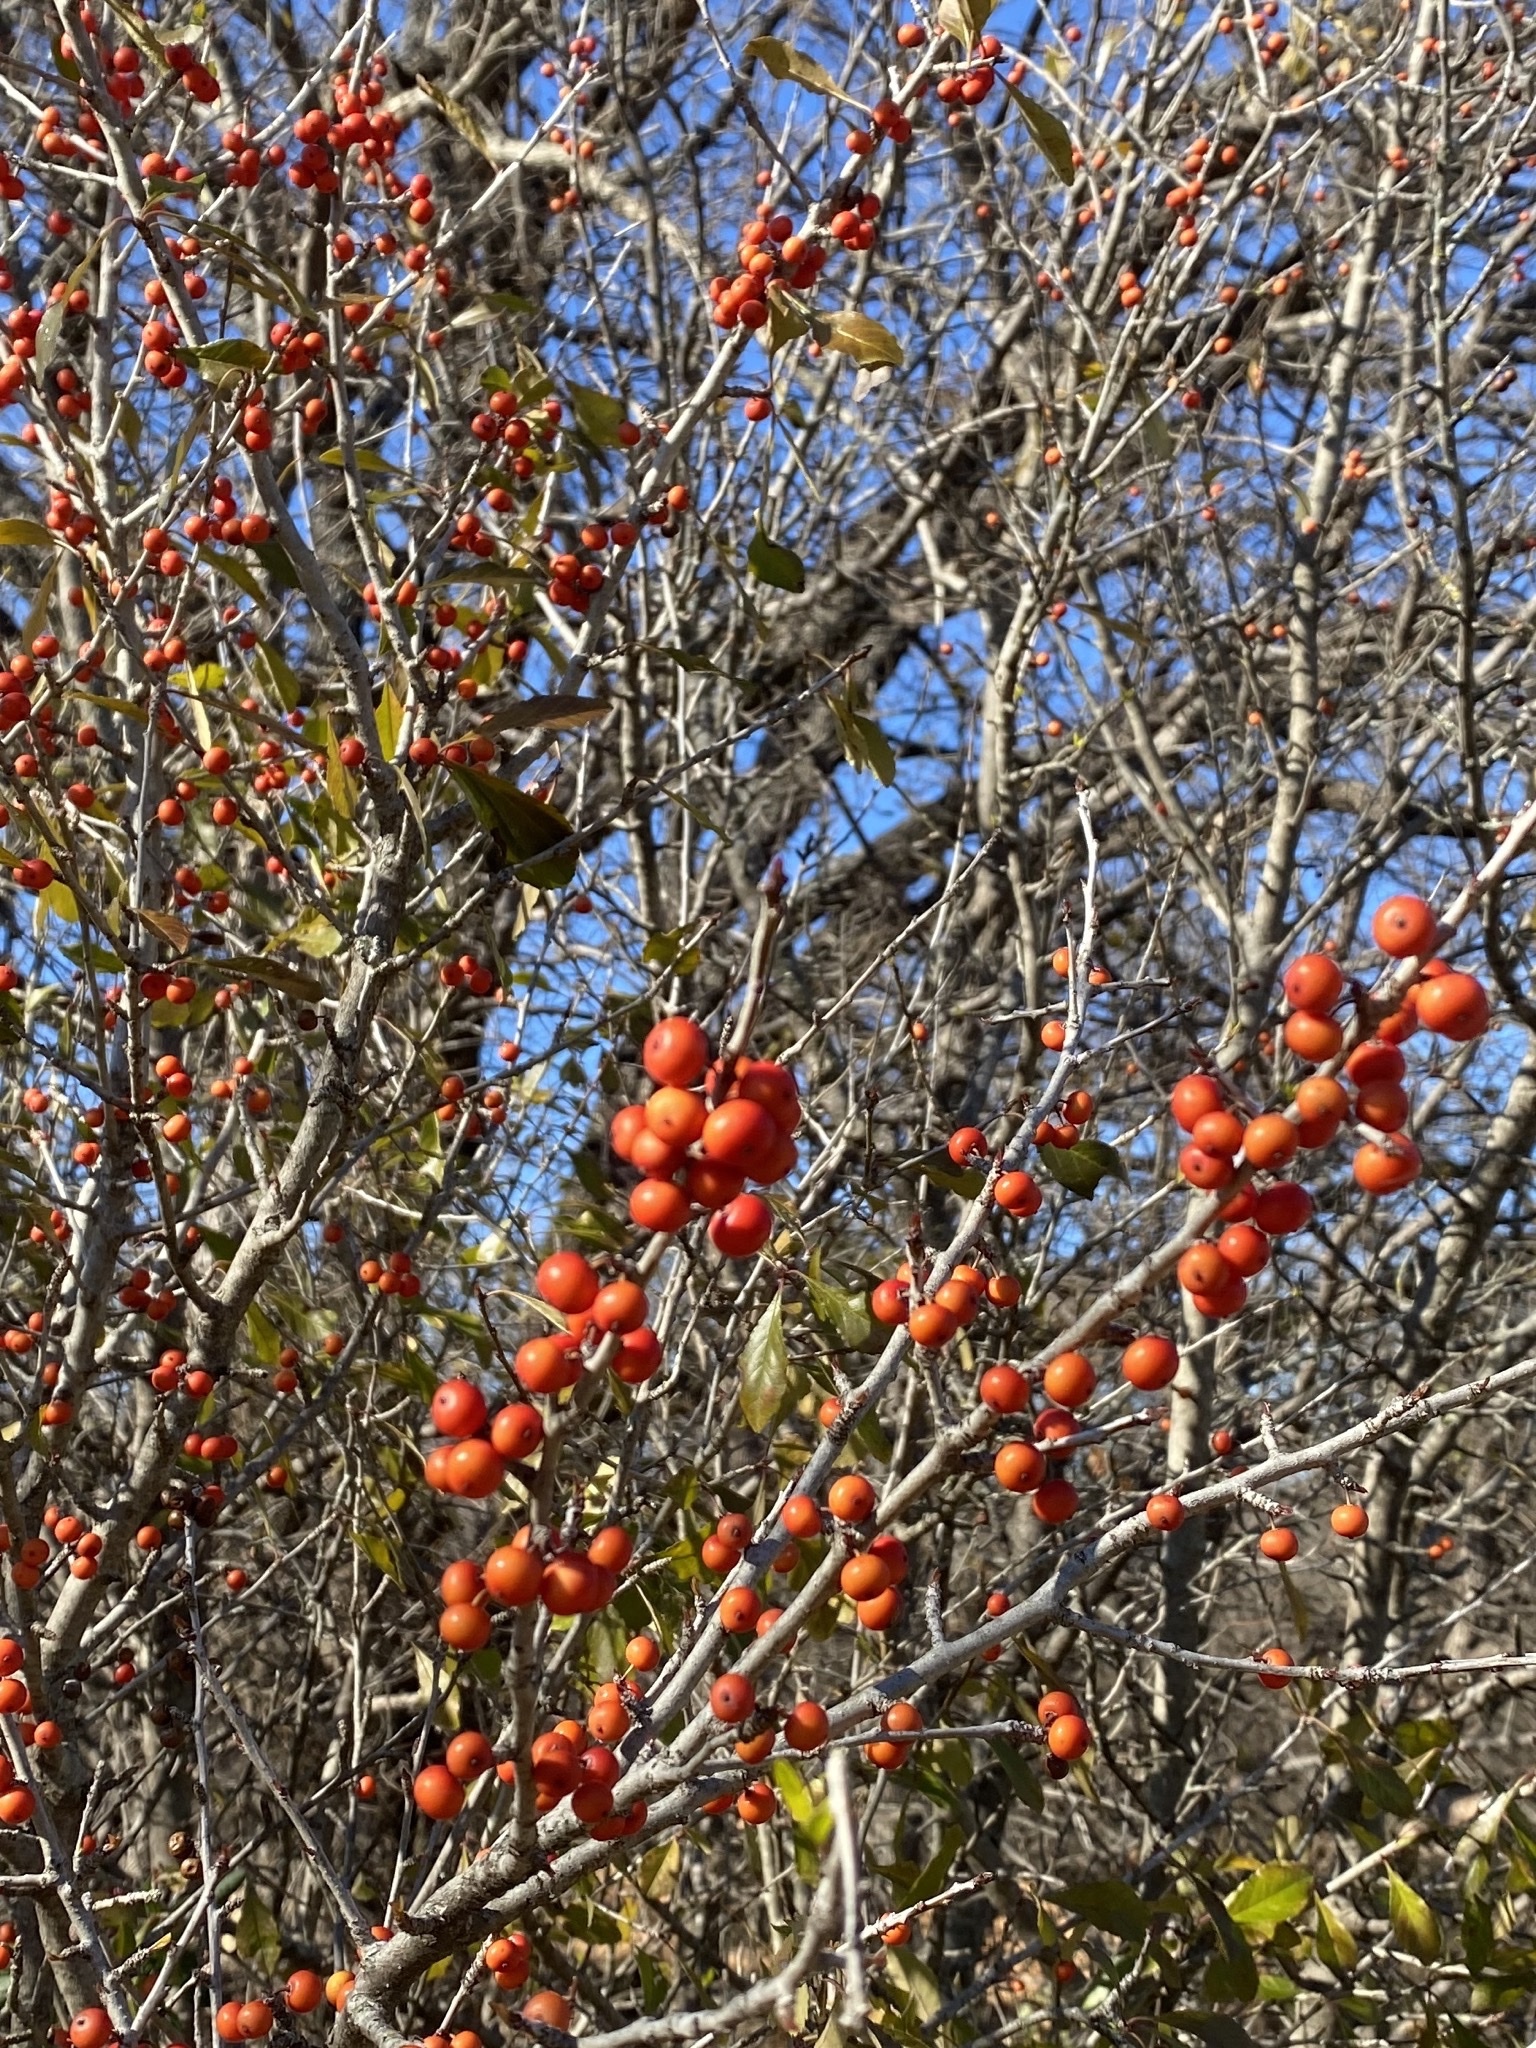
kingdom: Plantae
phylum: Tracheophyta
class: Magnoliopsida
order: Aquifoliales
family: Aquifoliaceae
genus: Ilex
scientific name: Ilex decidua
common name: Possum-haw
